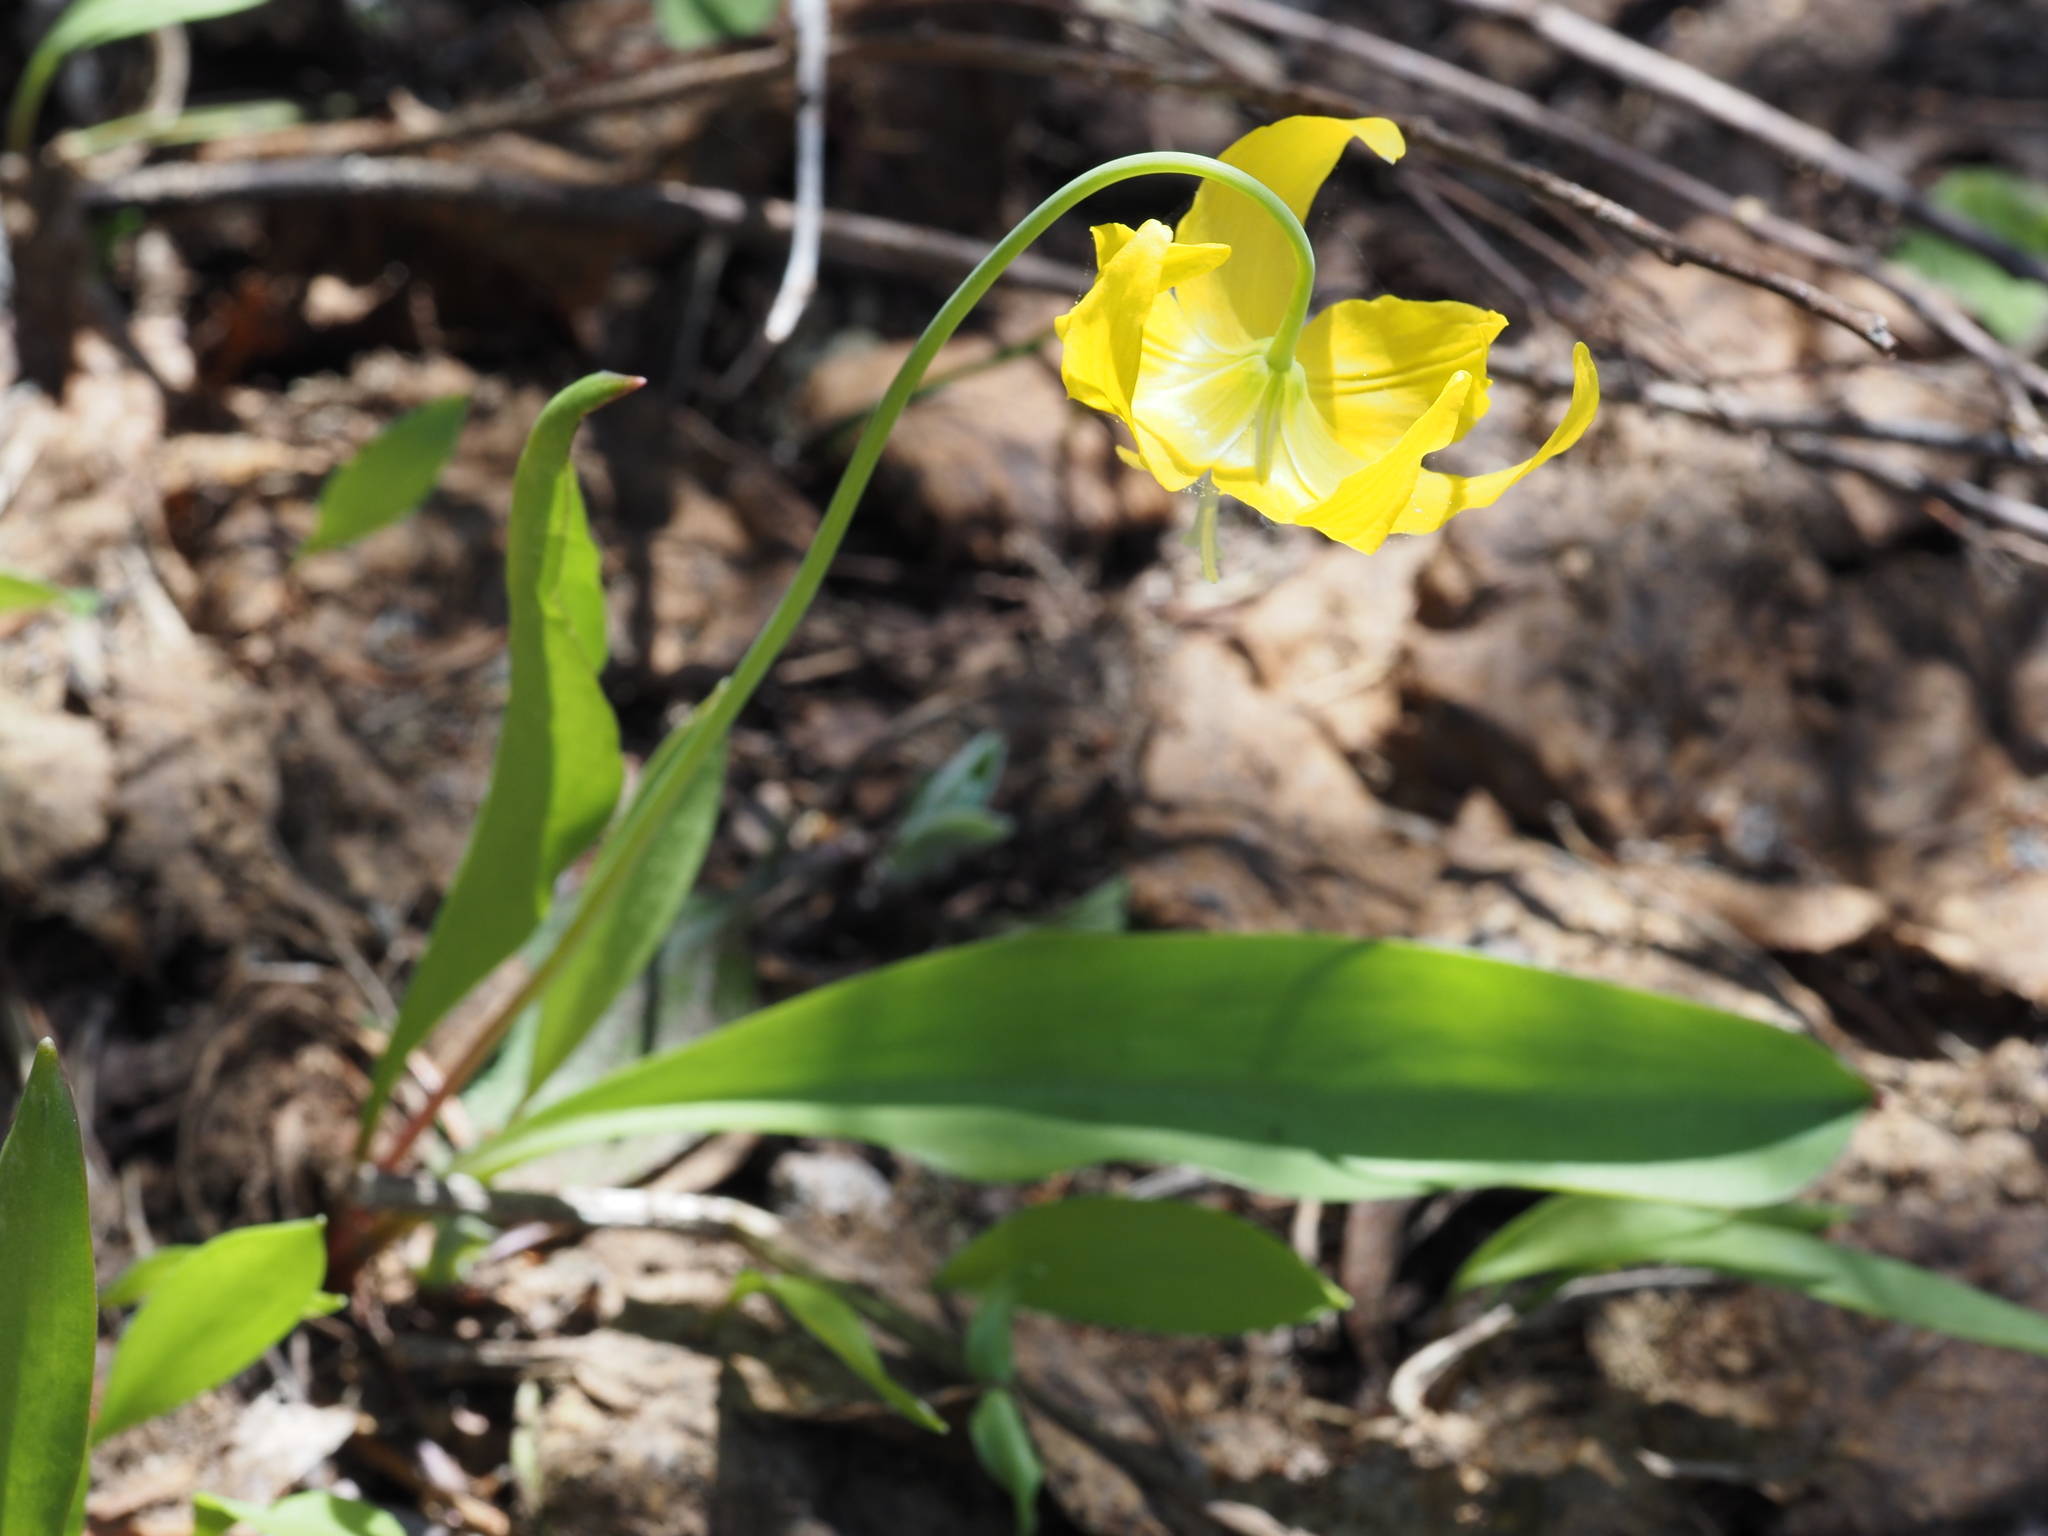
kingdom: Plantae
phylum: Tracheophyta
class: Liliopsida
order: Liliales
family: Liliaceae
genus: Erythronium
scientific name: Erythronium grandiflorum
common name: Avalanche-lily
